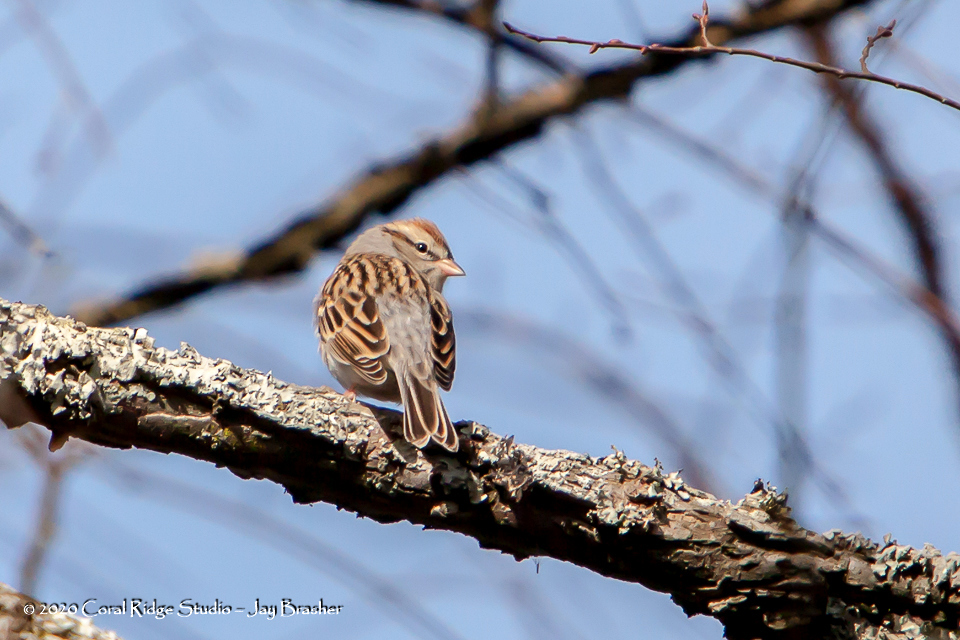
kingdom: Animalia
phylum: Chordata
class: Aves
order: Passeriformes
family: Passerellidae
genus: Spizella
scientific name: Spizella passerina
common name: Chipping sparrow
